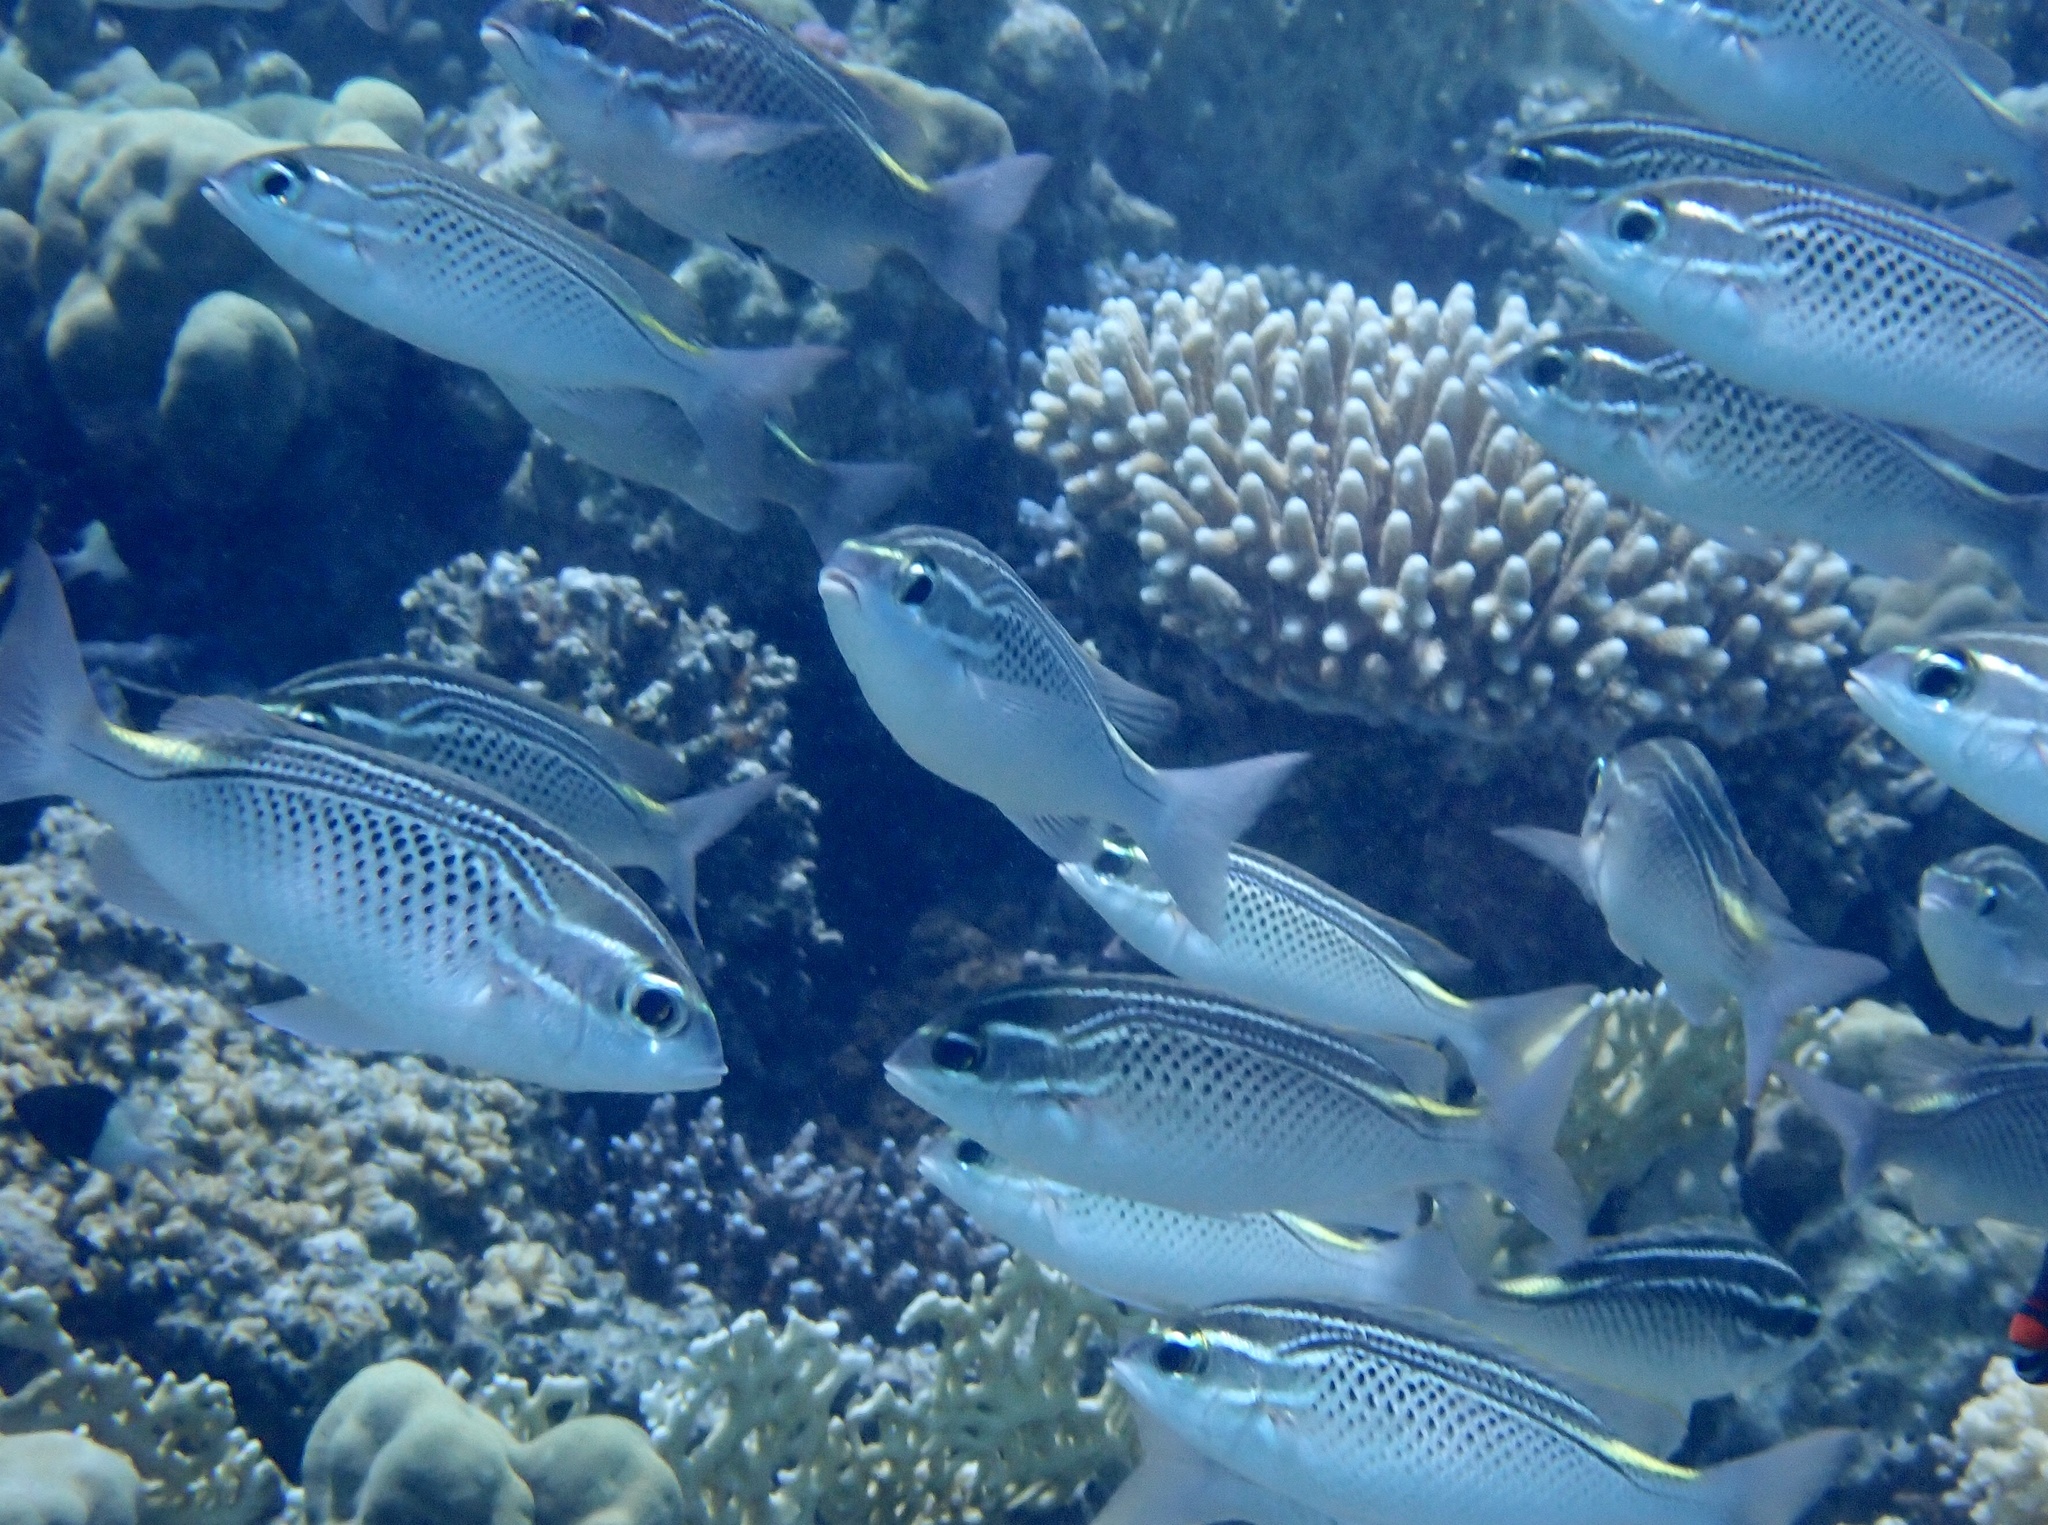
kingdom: Animalia
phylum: Chordata
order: Perciformes
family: Nemipteridae
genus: Scolopsis
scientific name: Scolopsis ghanam
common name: Arabian monocle bream
